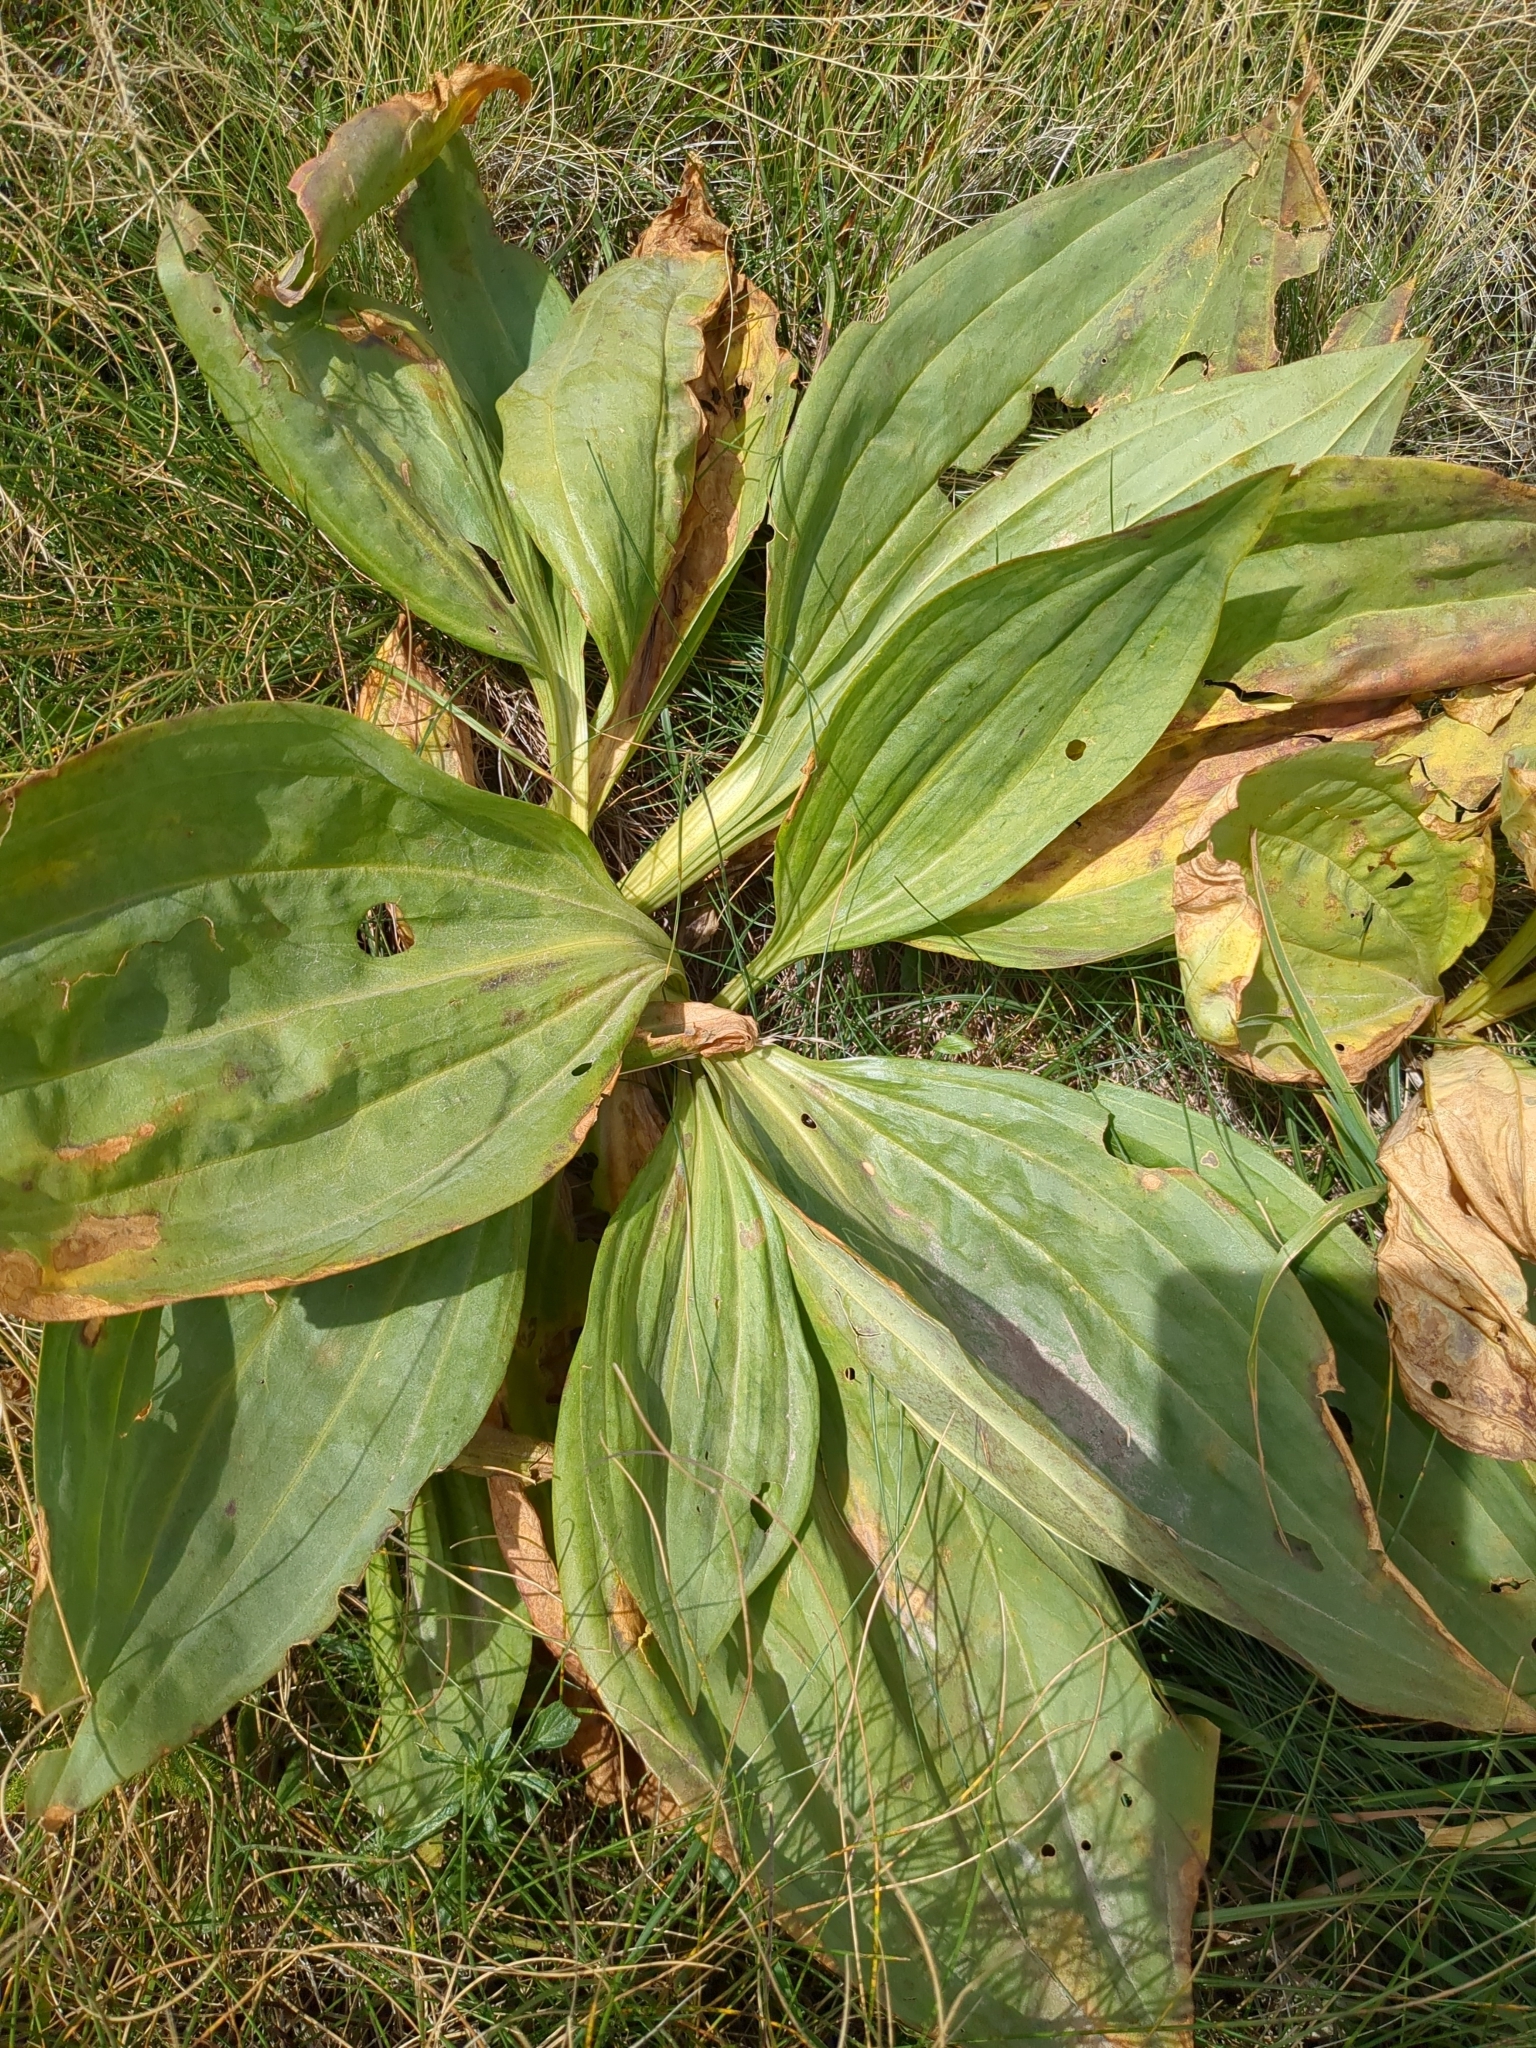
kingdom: Plantae
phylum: Tracheophyta
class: Magnoliopsida
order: Gentianales
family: Gentianaceae
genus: Gentiana
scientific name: Gentiana lutea
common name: Great yellow gentian
